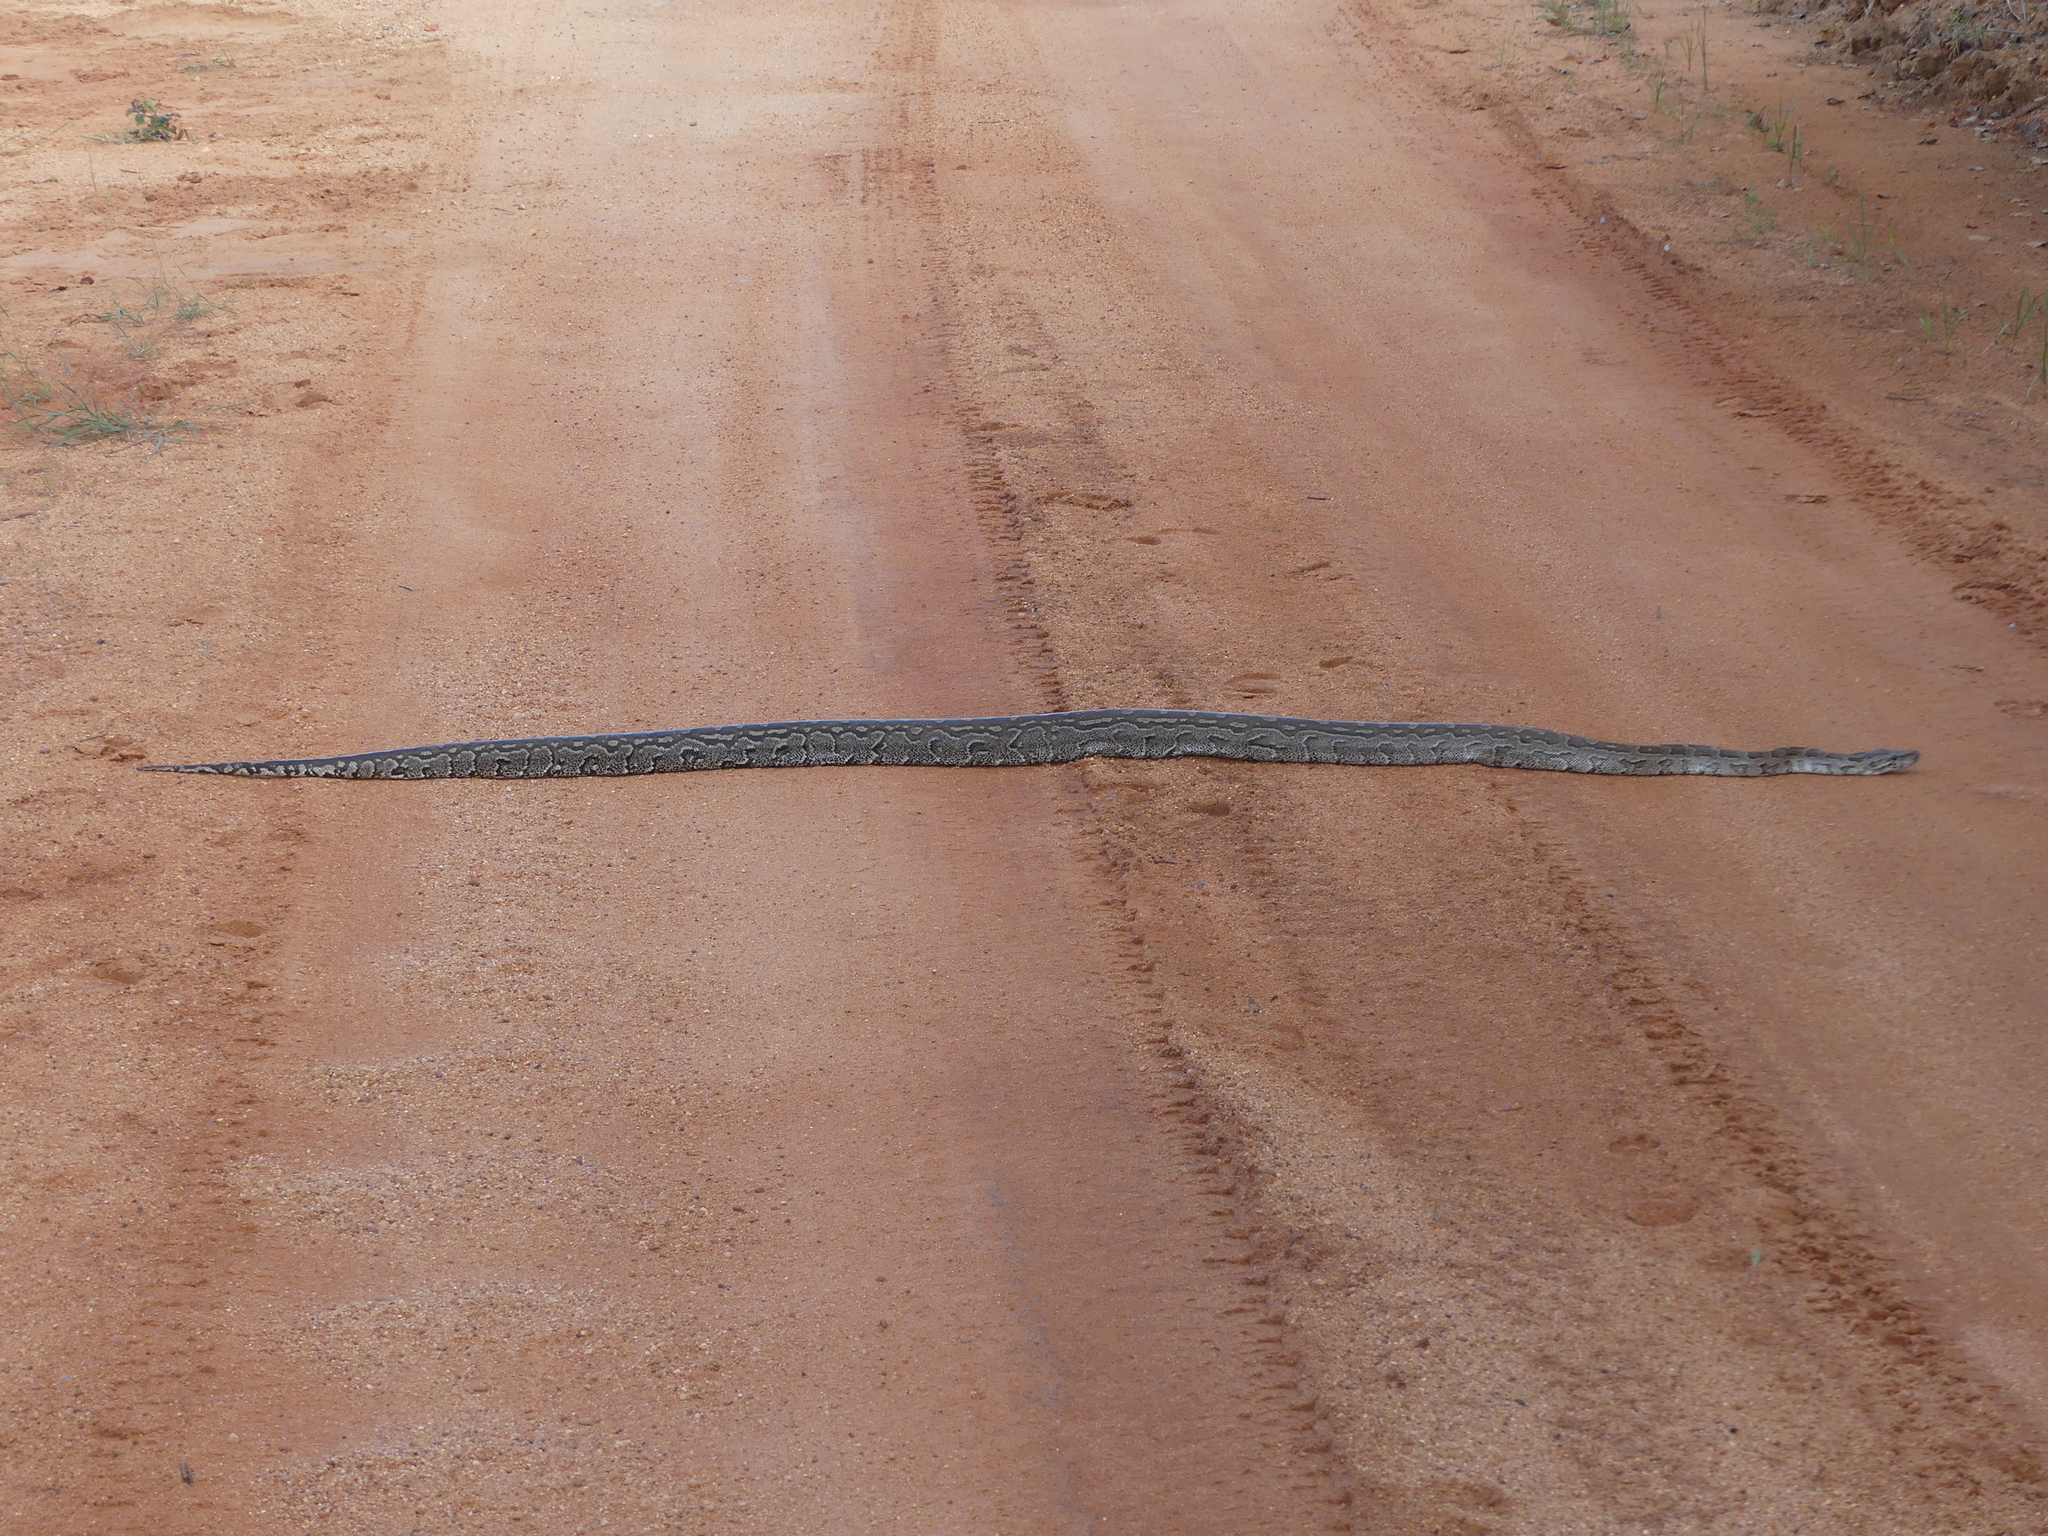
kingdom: Animalia
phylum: Chordata
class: Squamata
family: Pythonidae
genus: Python
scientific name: Python natalensis
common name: Southern african rock python
